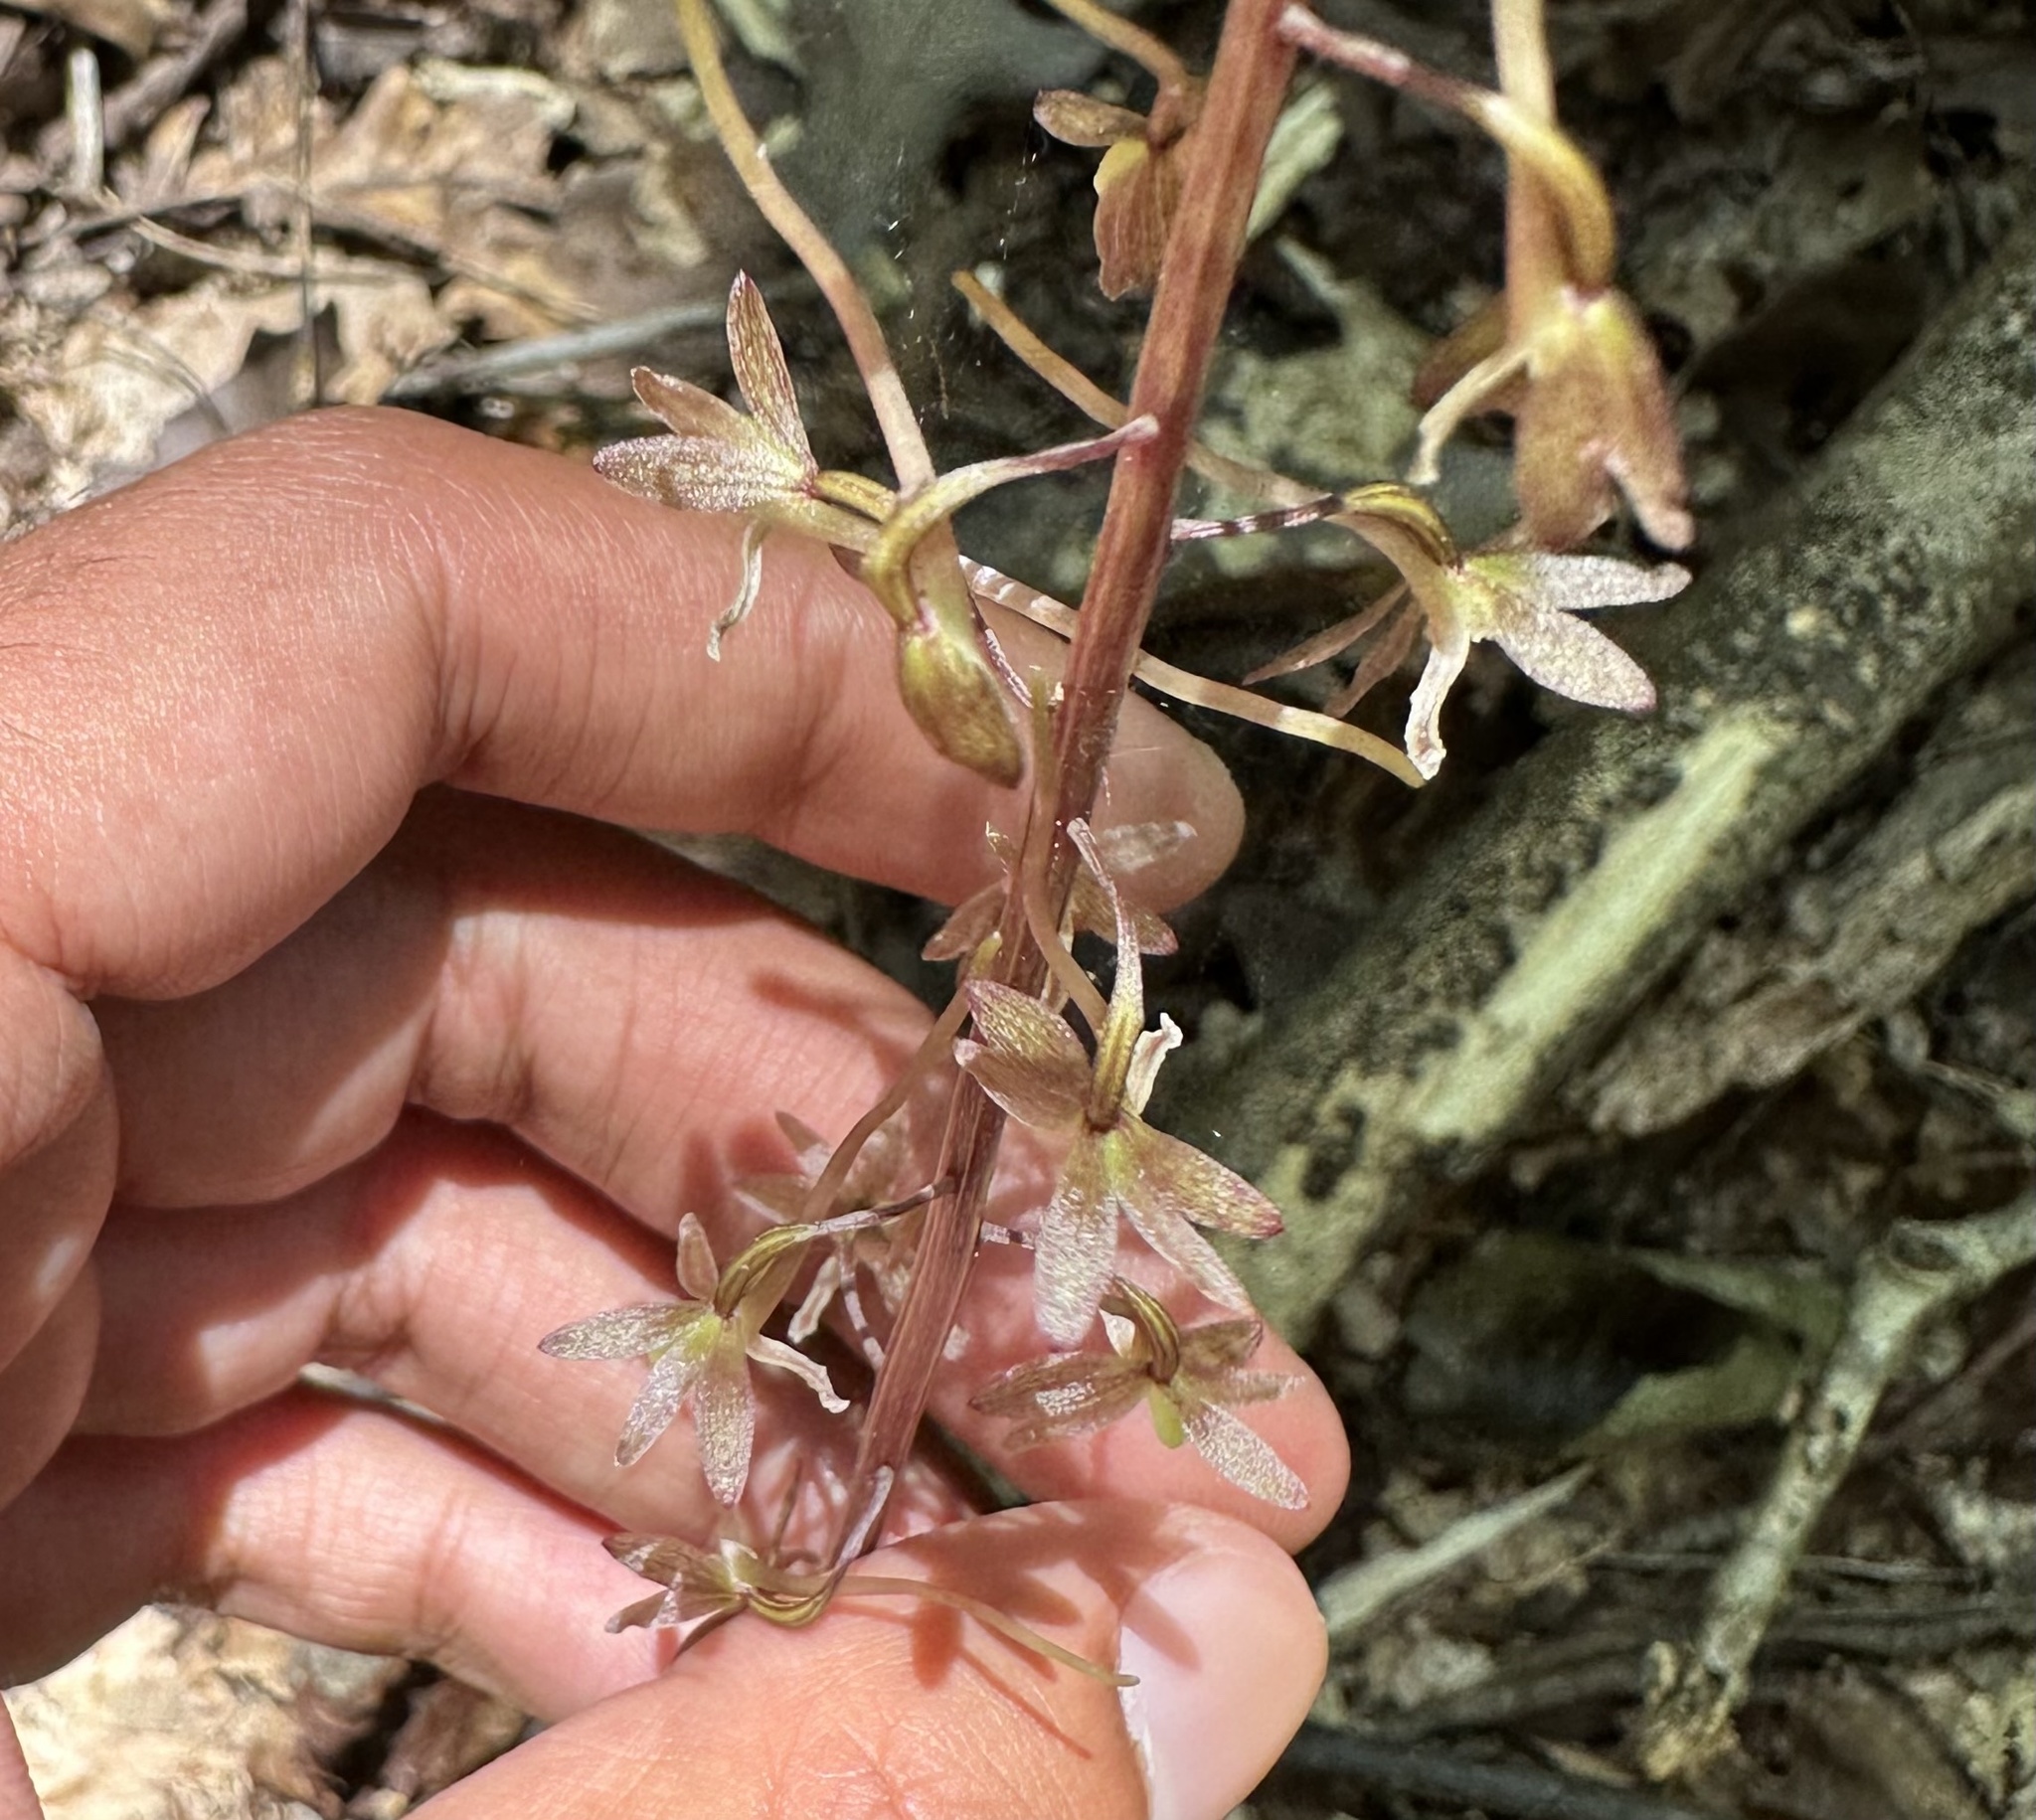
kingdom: Plantae
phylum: Tracheophyta
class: Liliopsida
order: Asparagales
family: Orchidaceae
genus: Tipularia
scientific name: Tipularia discolor
